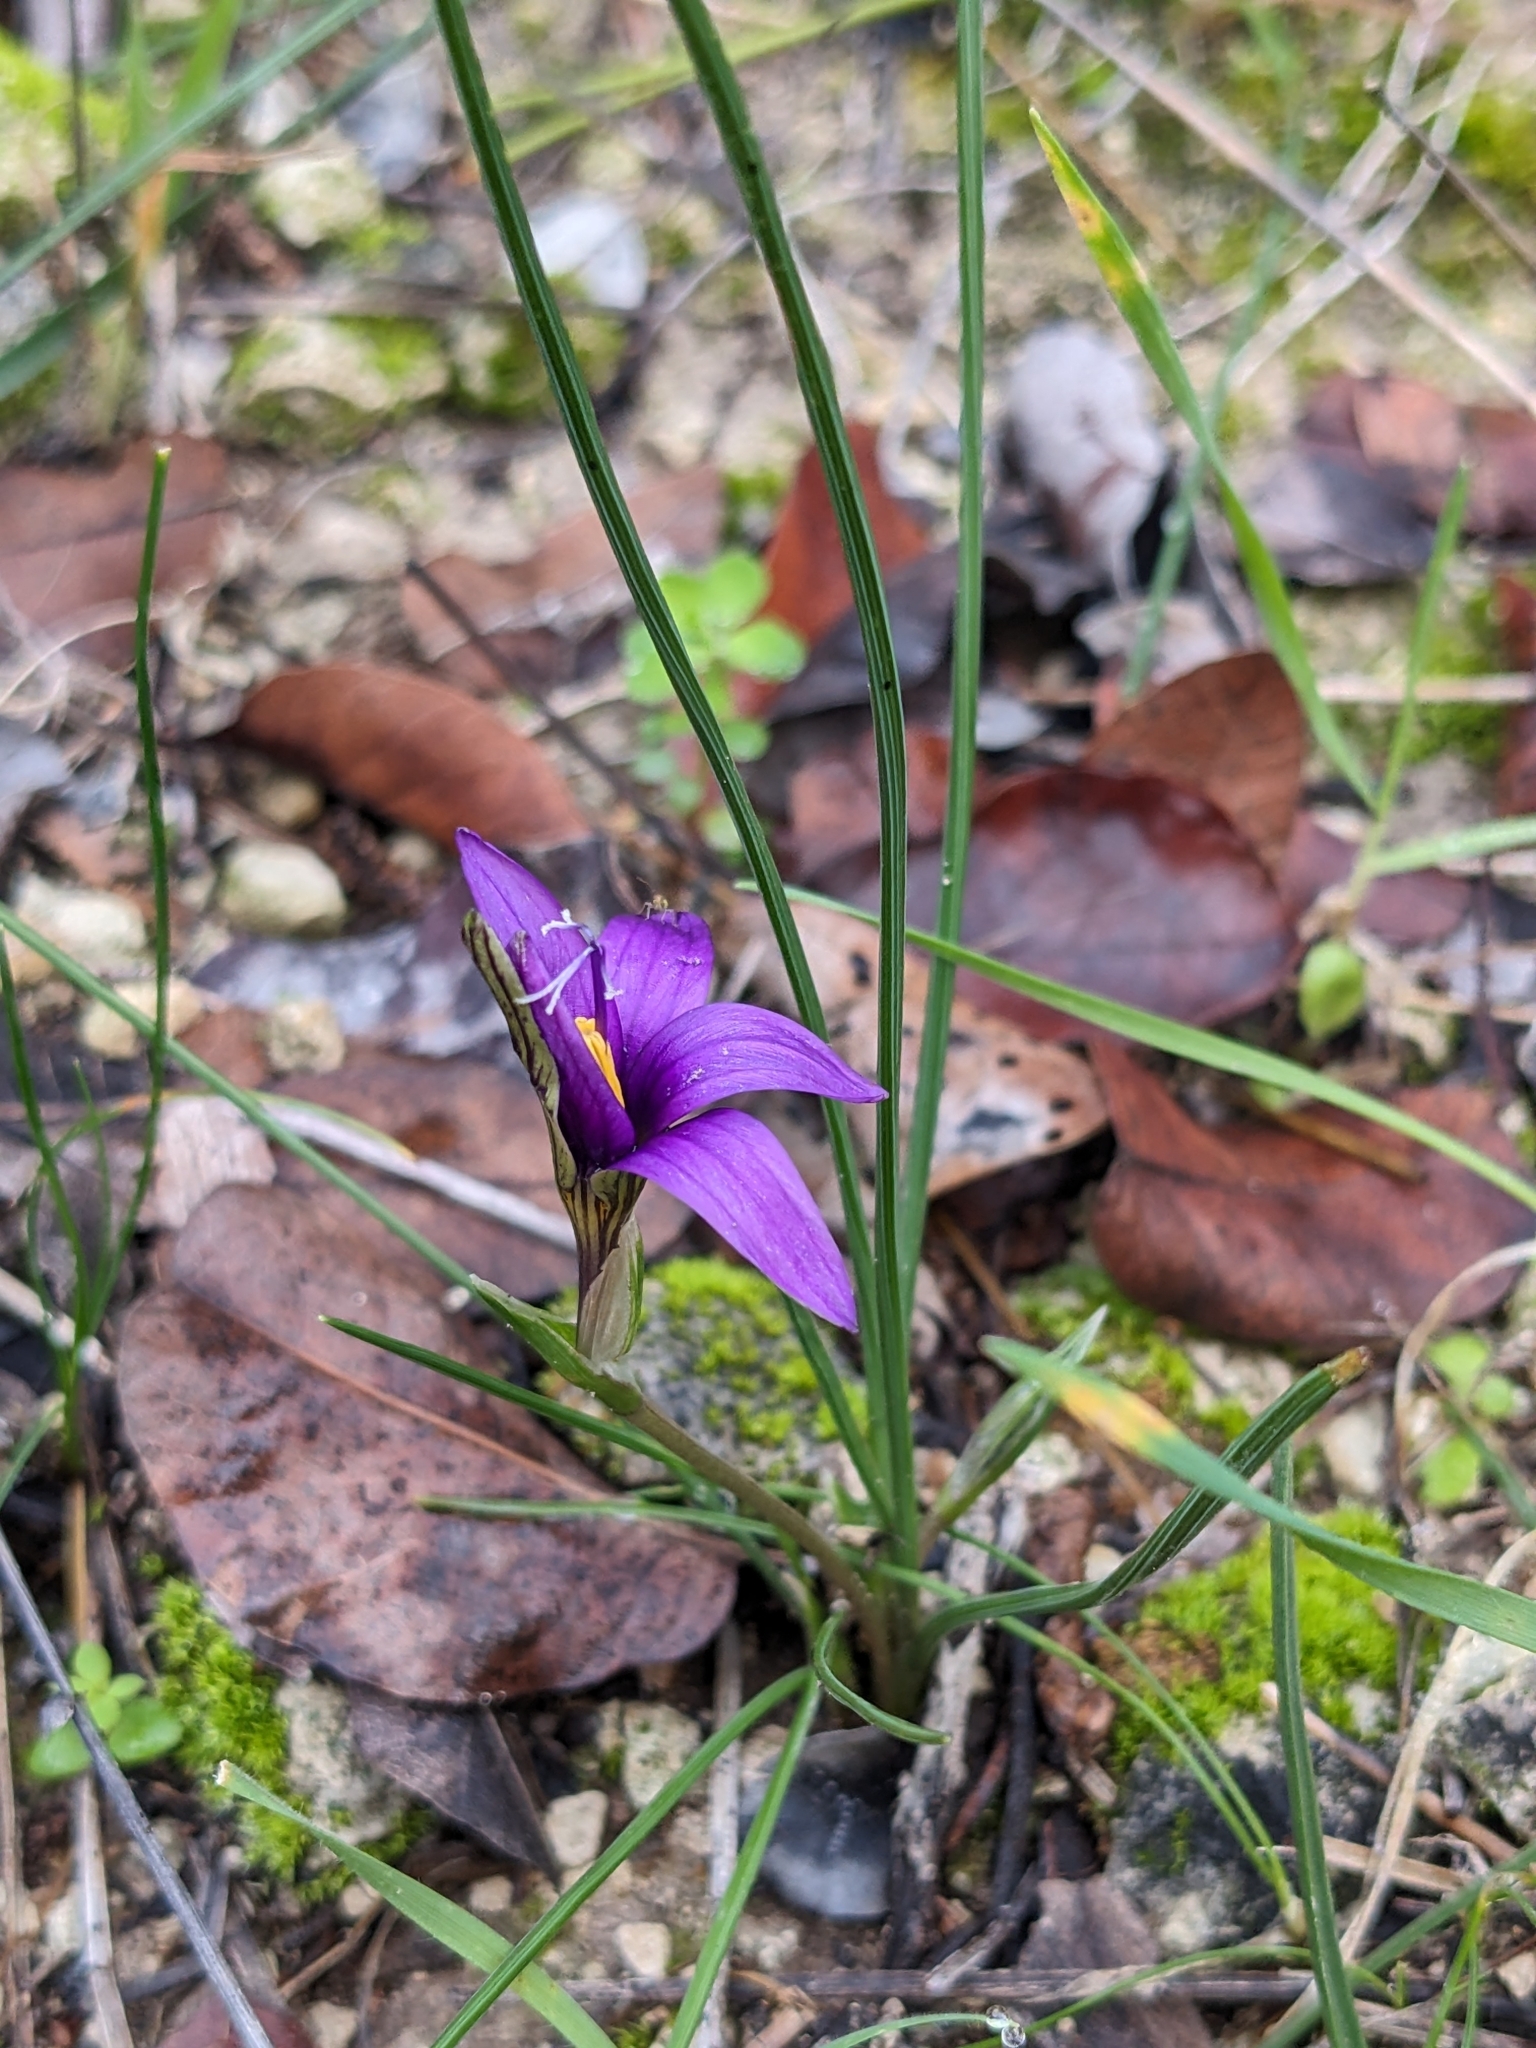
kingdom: Plantae
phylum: Tracheophyta
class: Liliopsida
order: Asparagales
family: Iridaceae
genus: Romulea
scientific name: Romulea tempskyana
